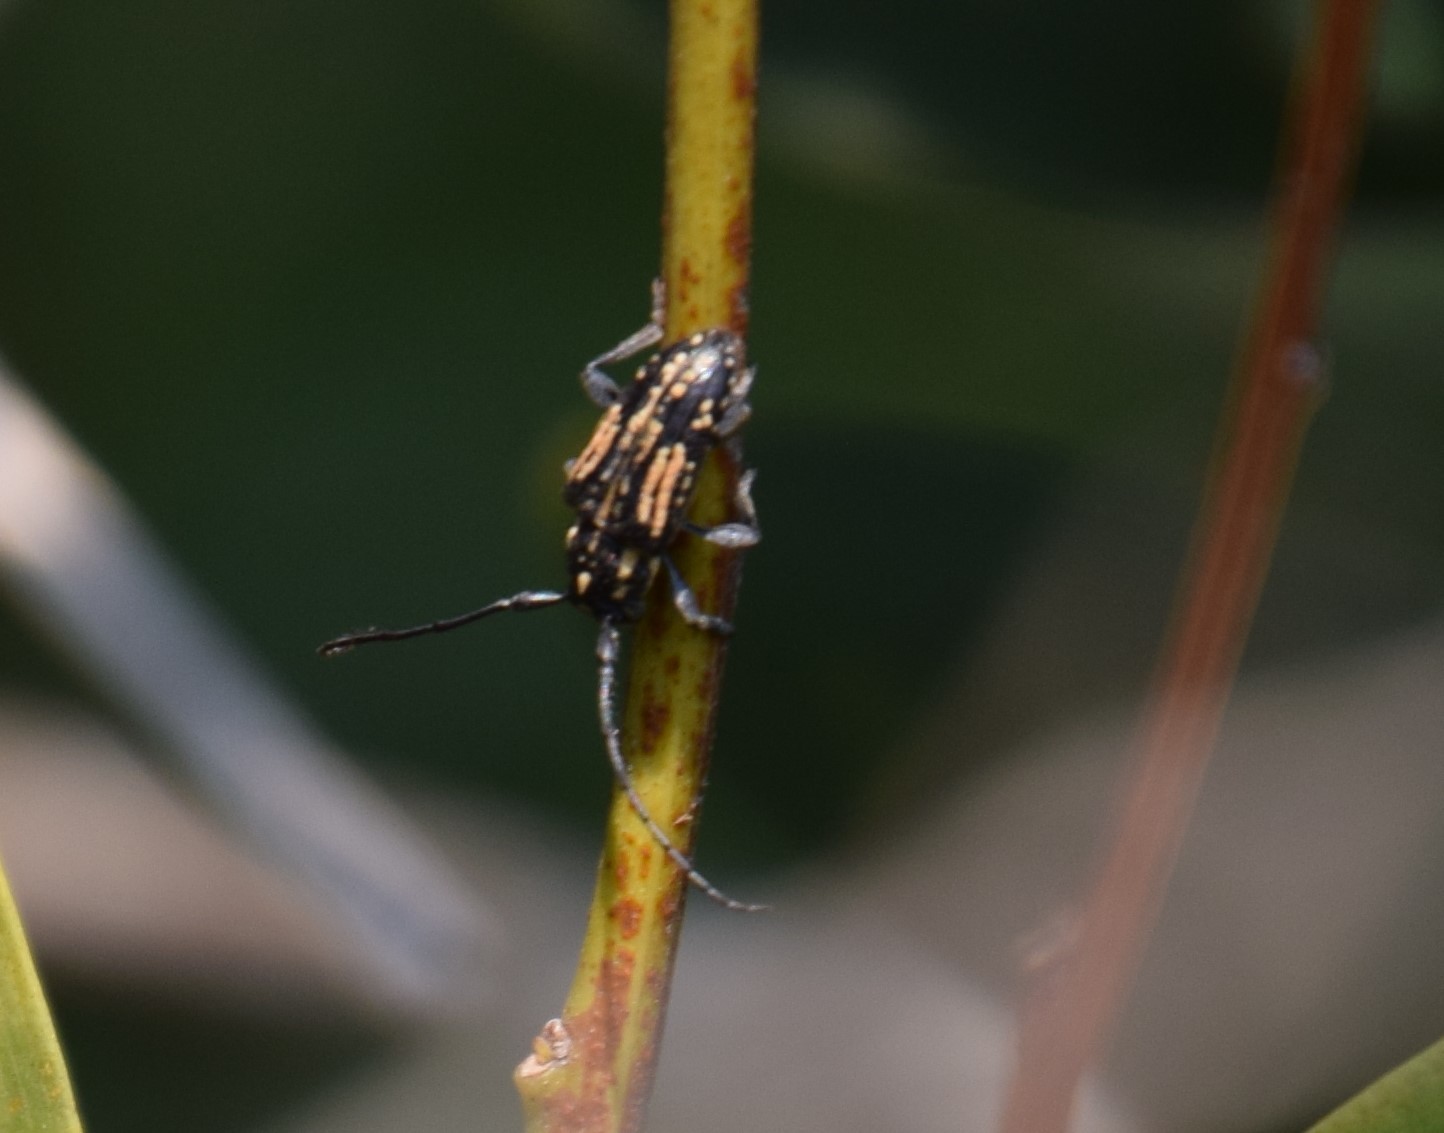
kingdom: Animalia
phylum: Arthropoda
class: Insecta
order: Coleoptera
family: Cerambycidae
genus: Hebecerus
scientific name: Hebecerus crocogaster
